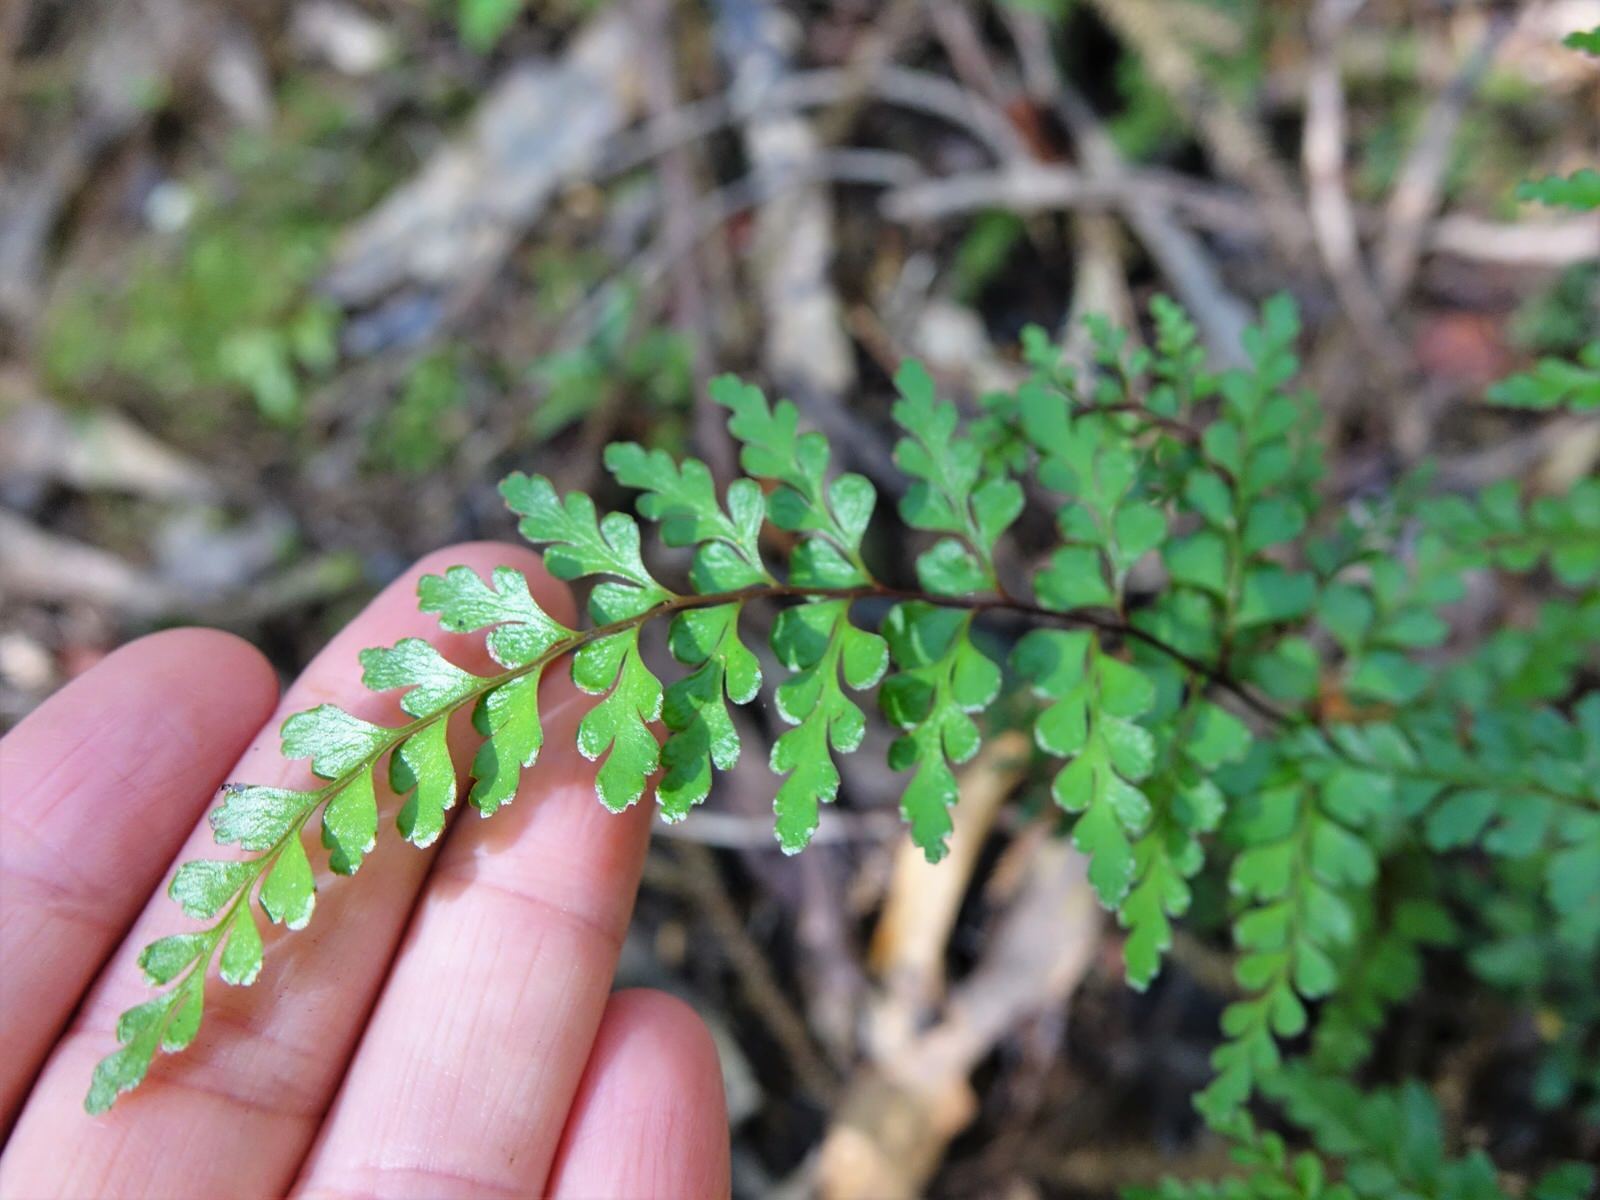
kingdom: Plantae
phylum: Tracheophyta
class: Polypodiopsida
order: Polypodiales
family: Lindsaeaceae
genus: Lindsaea
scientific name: Lindsaea trichomanoides
